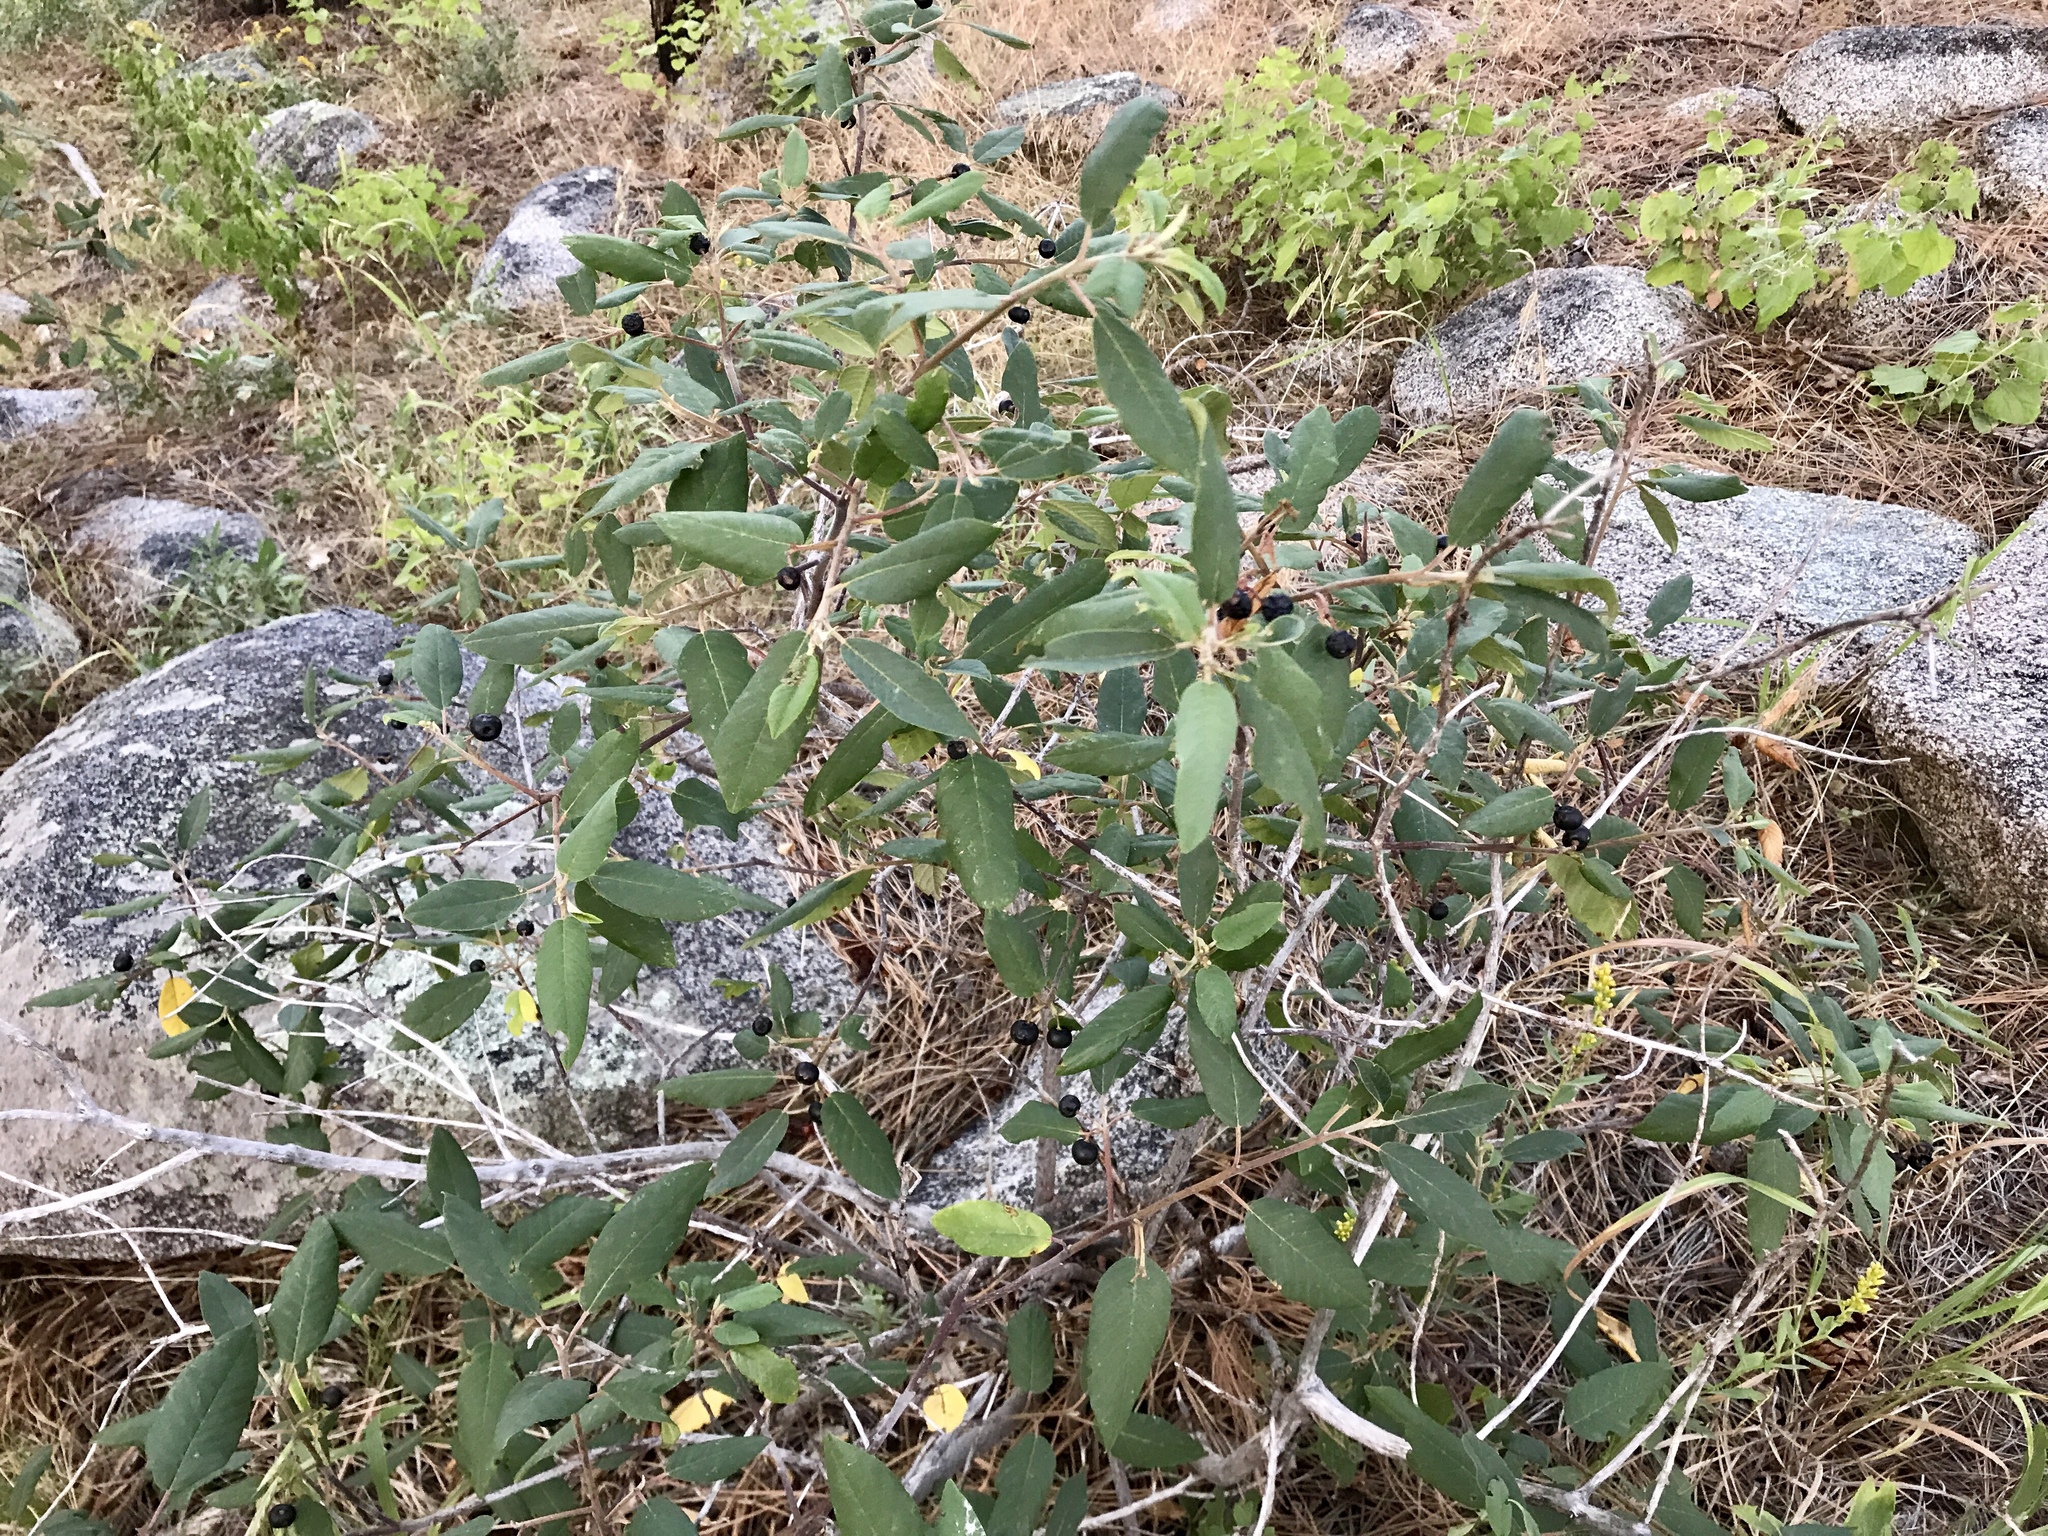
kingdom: Plantae
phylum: Tracheophyta
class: Magnoliopsida
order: Rosales
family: Rhamnaceae
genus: Frangula
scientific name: Frangula californica
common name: California buckthorn
